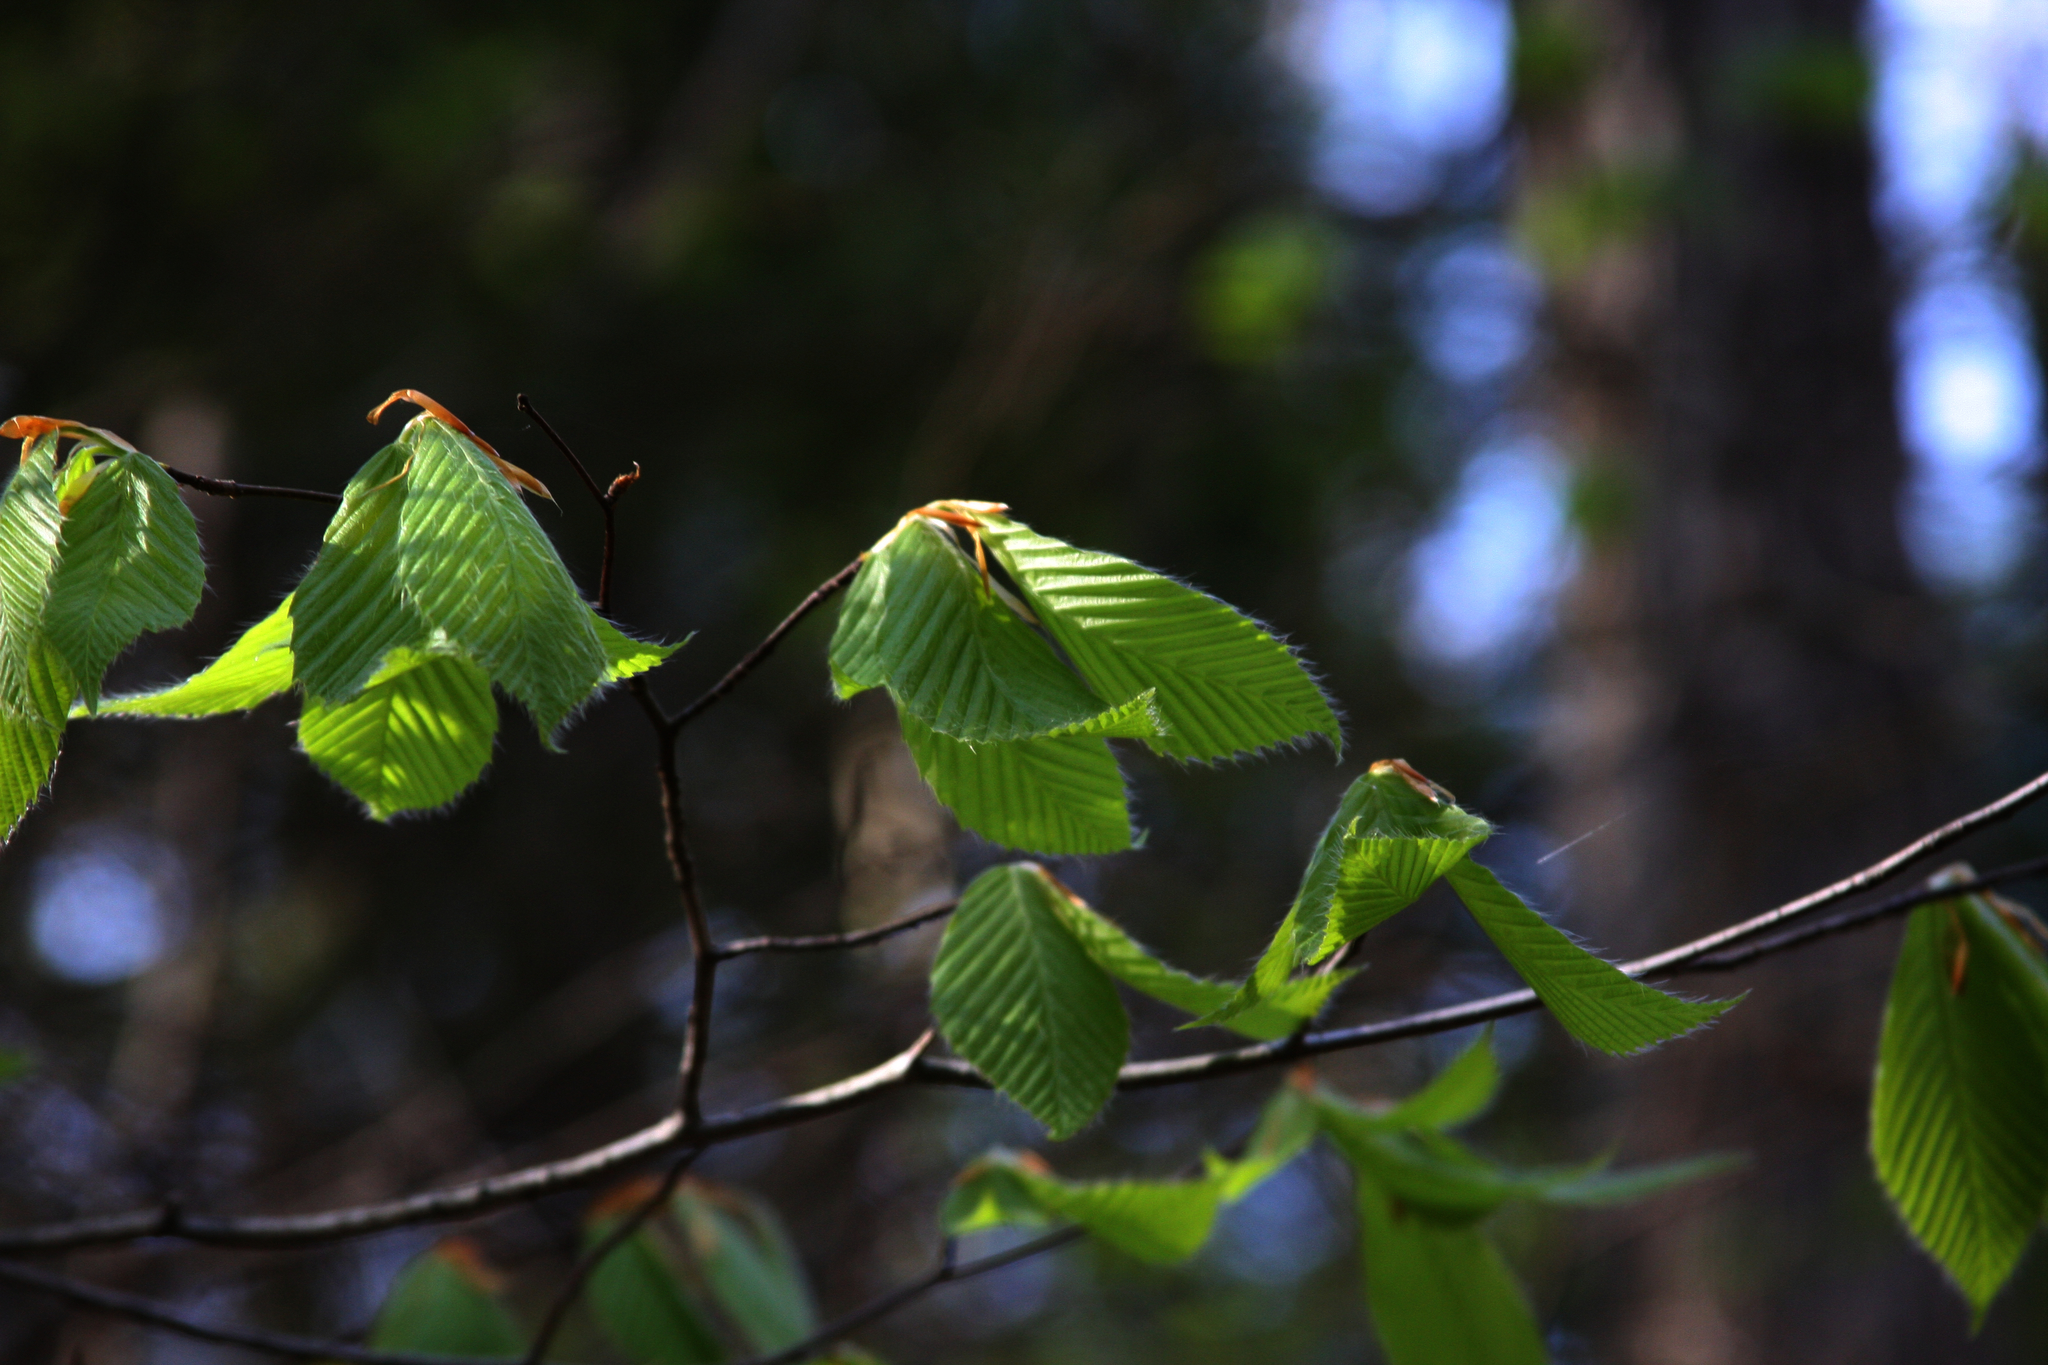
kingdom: Plantae
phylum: Tracheophyta
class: Magnoliopsida
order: Fagales
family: Fagaceae
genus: Fagus
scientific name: Fagus grandifolia
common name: American beech
